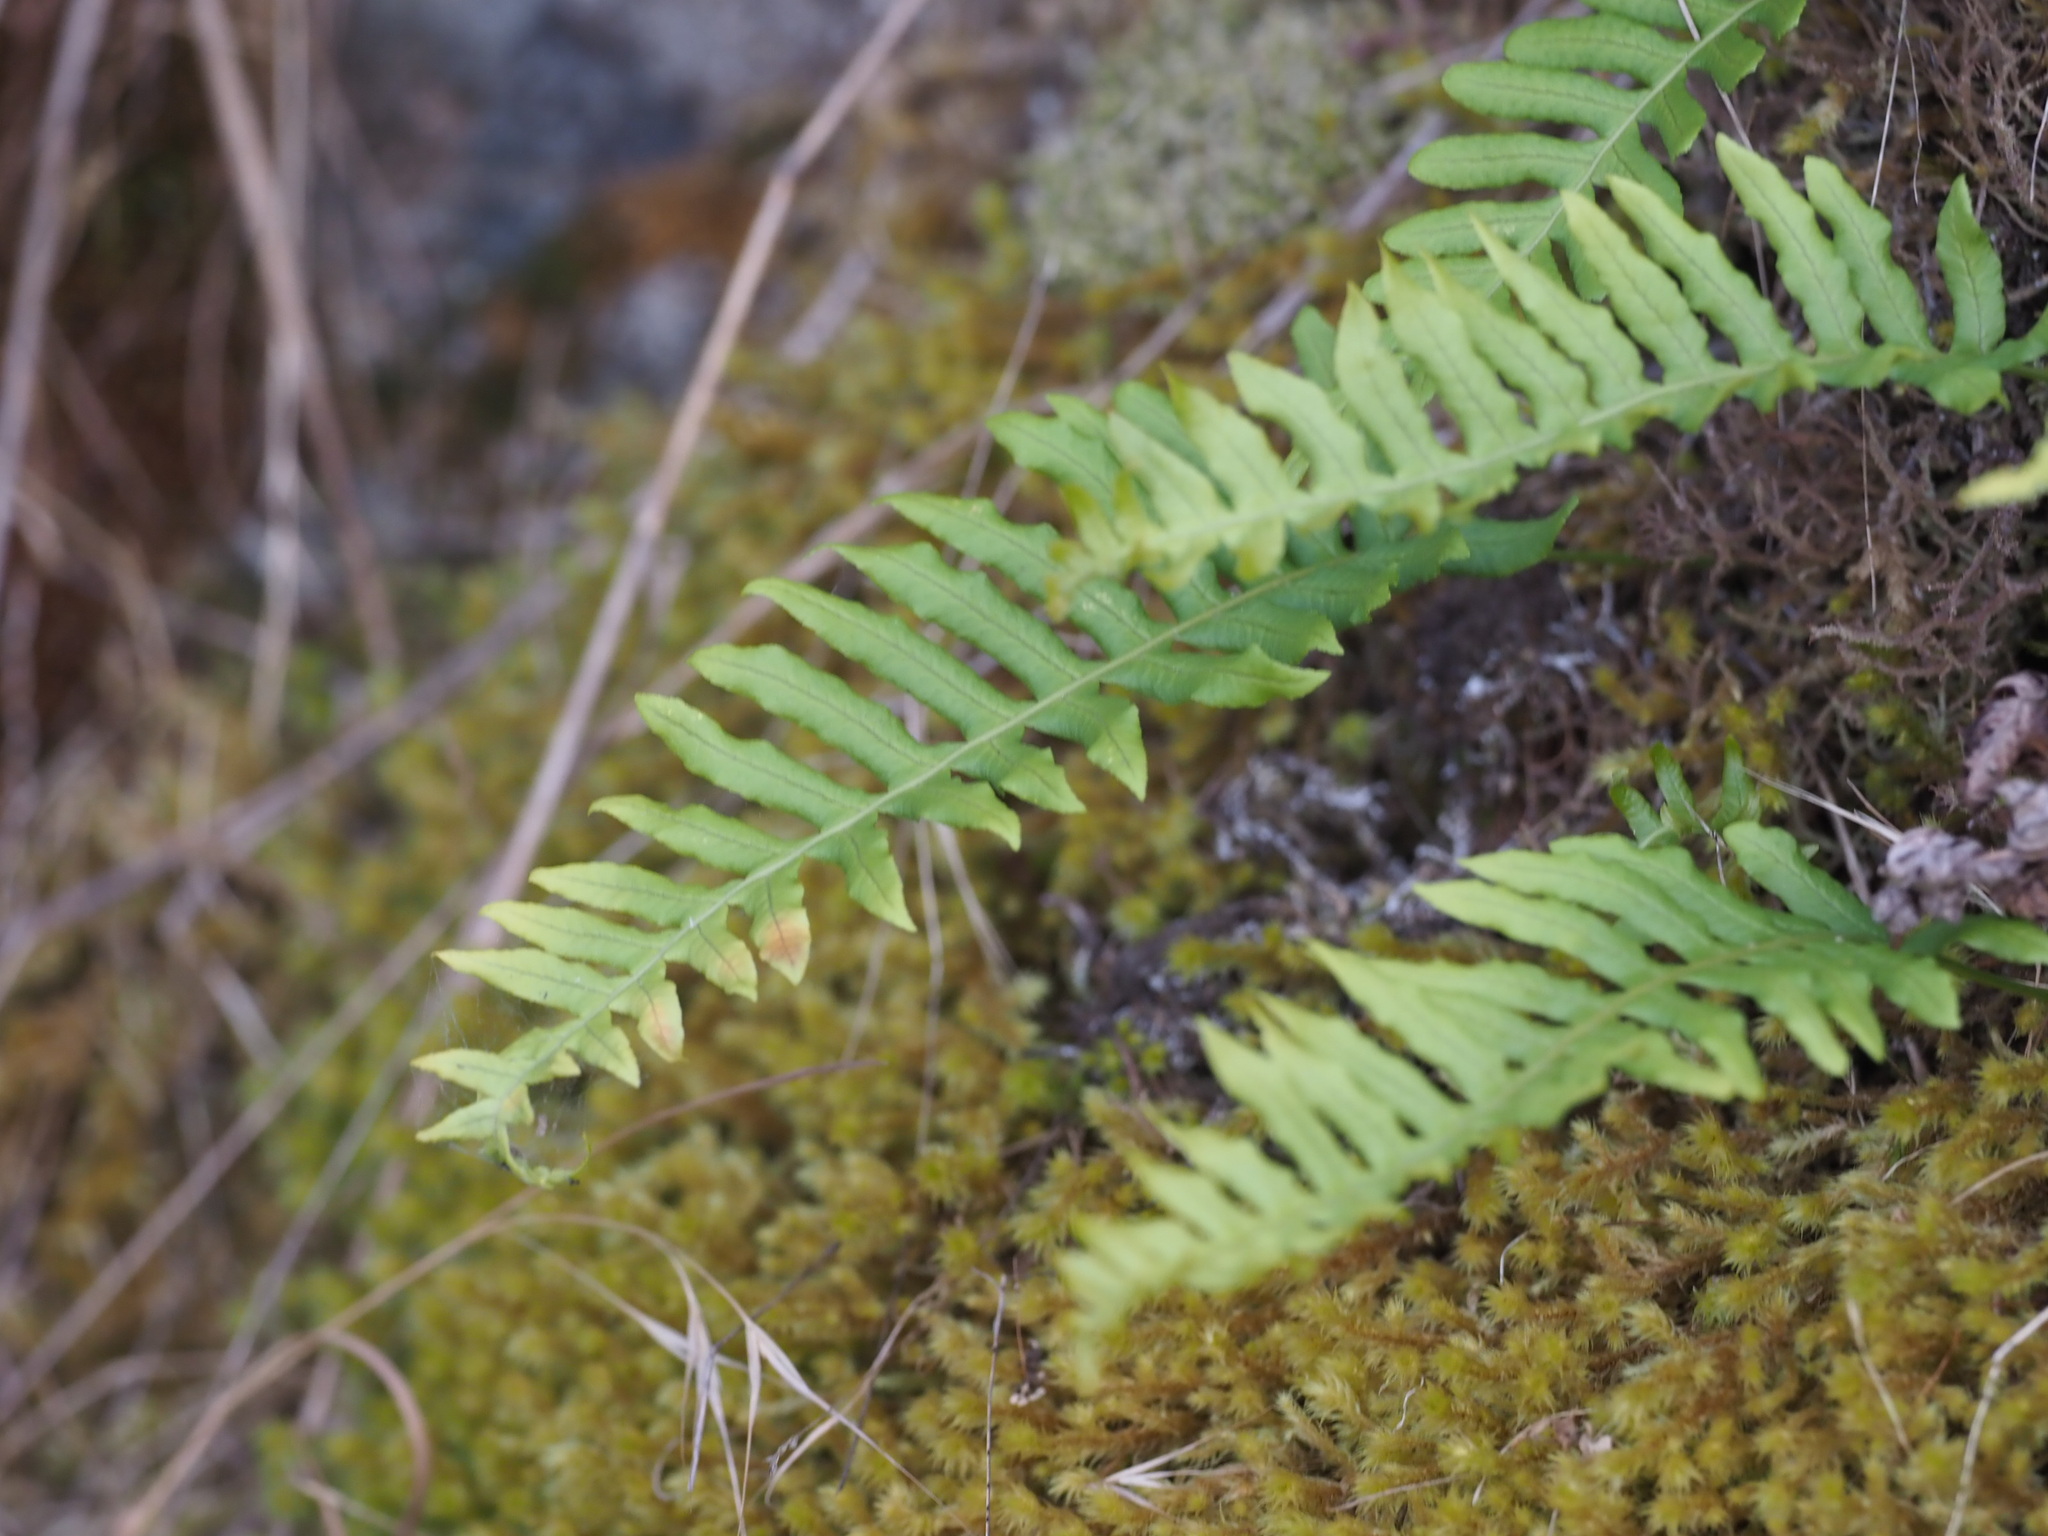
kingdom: Plantae
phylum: Tracheophyta
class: Polypodiopsida
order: Polypodiales
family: Polypodiaceae
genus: Polypodium
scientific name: Polypodium glycyrrhiza
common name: Licorice fern
